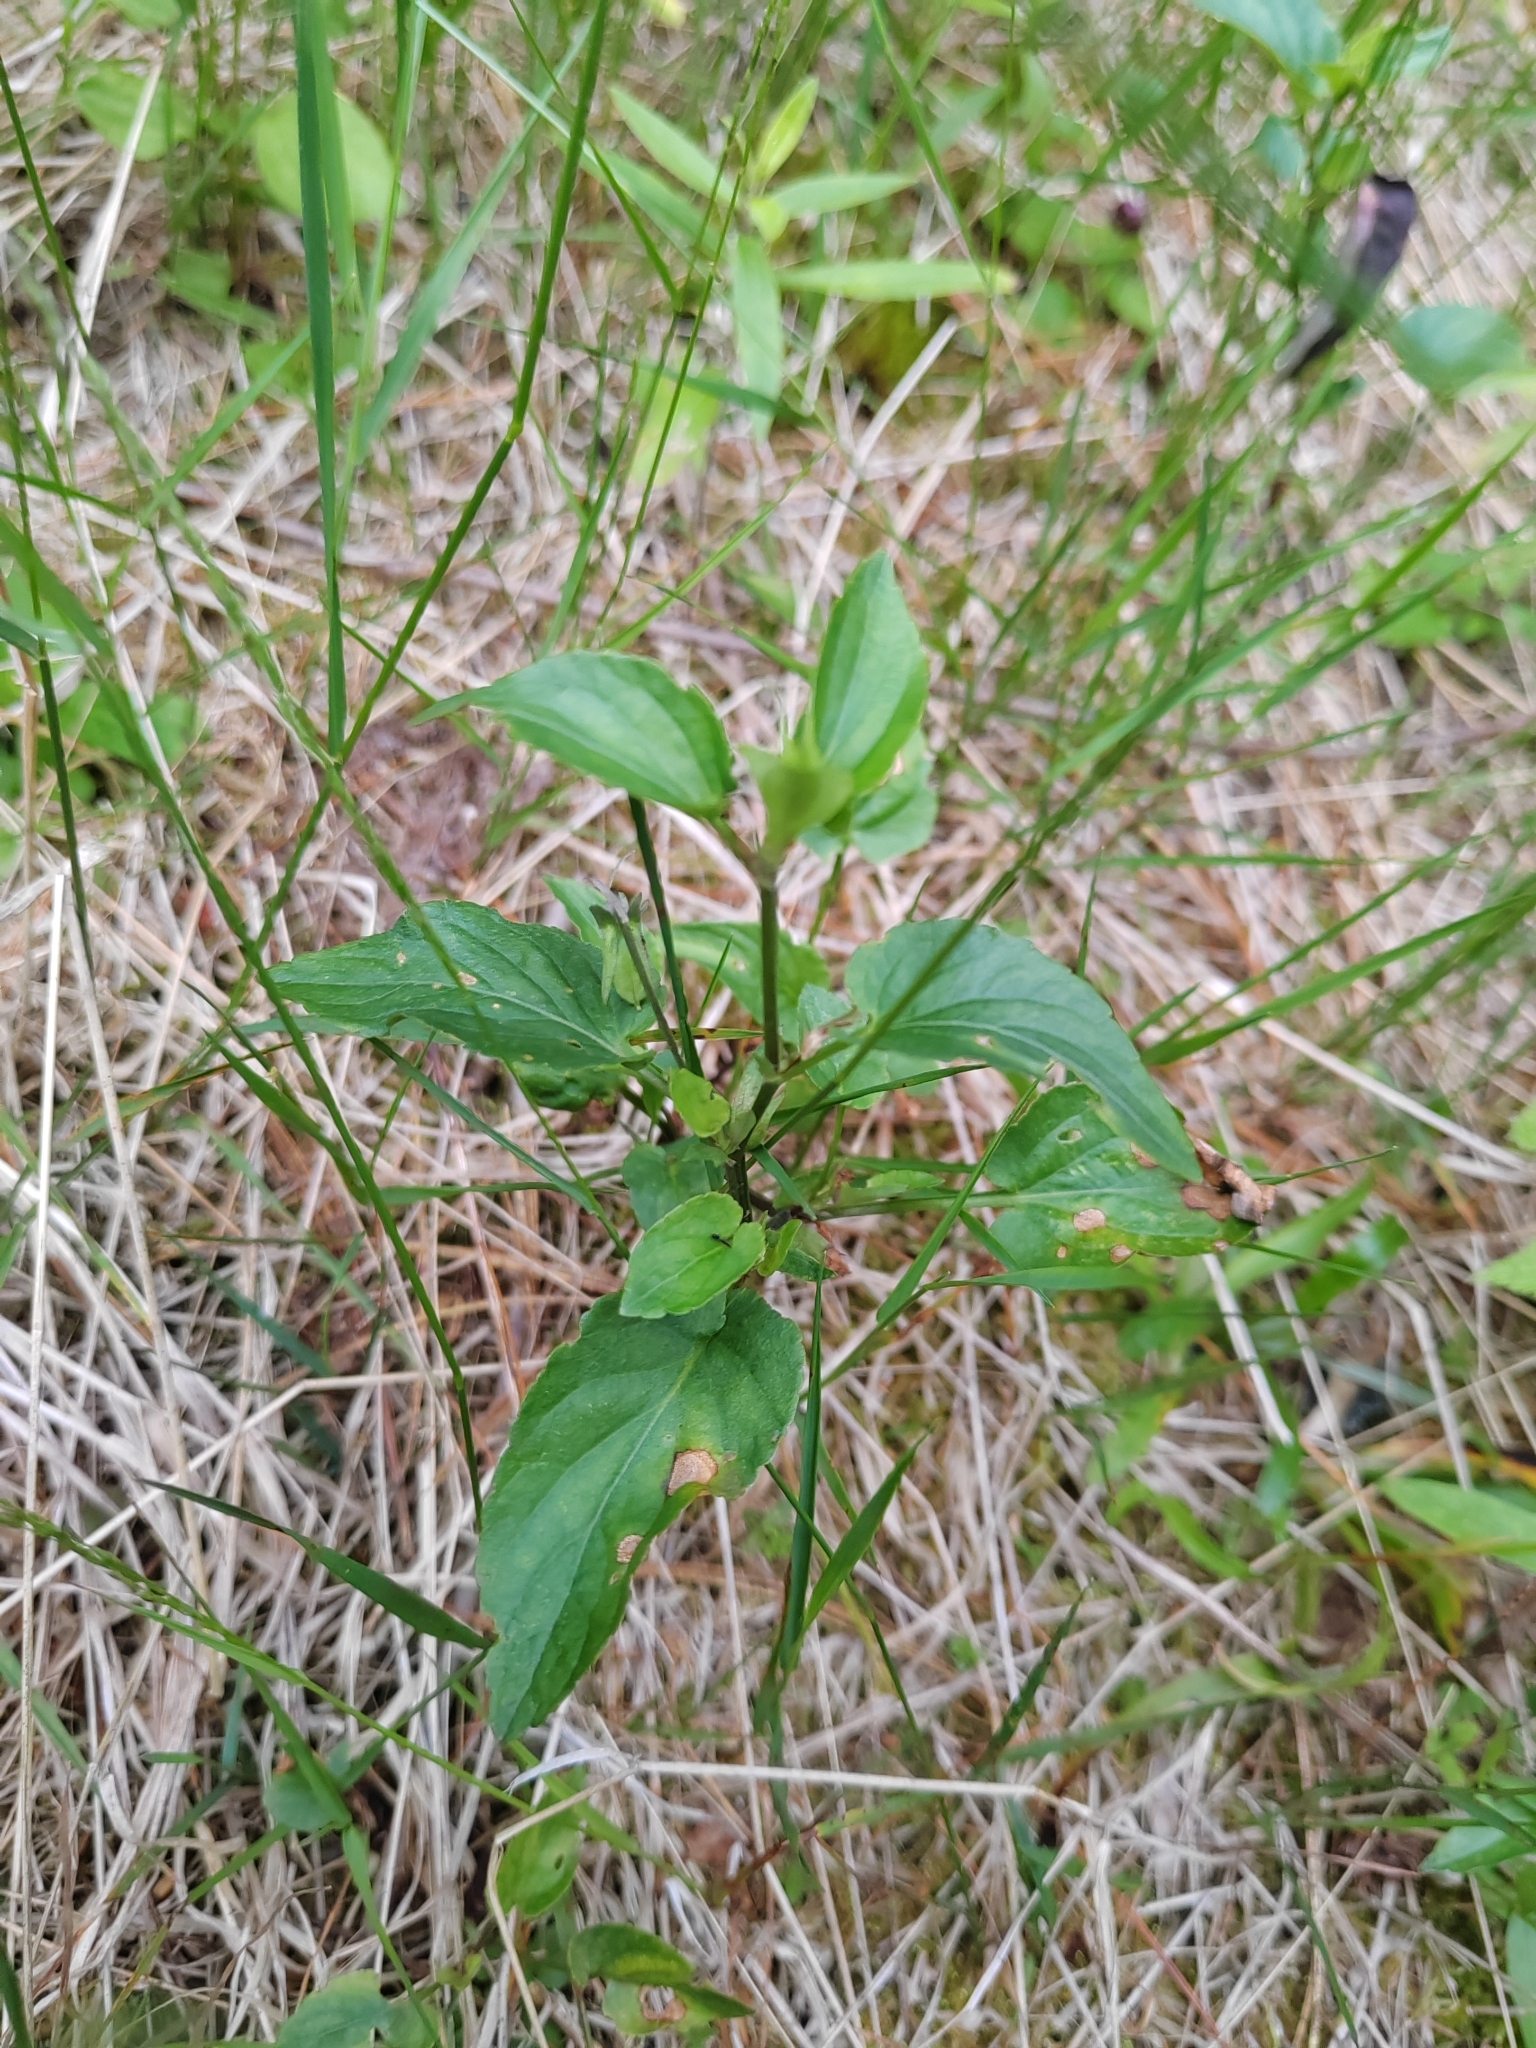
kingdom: Plantae
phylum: Tracheophyta
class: Magnoliopsida
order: Malpighiales
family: Violaceae
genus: Viola
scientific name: Viola
